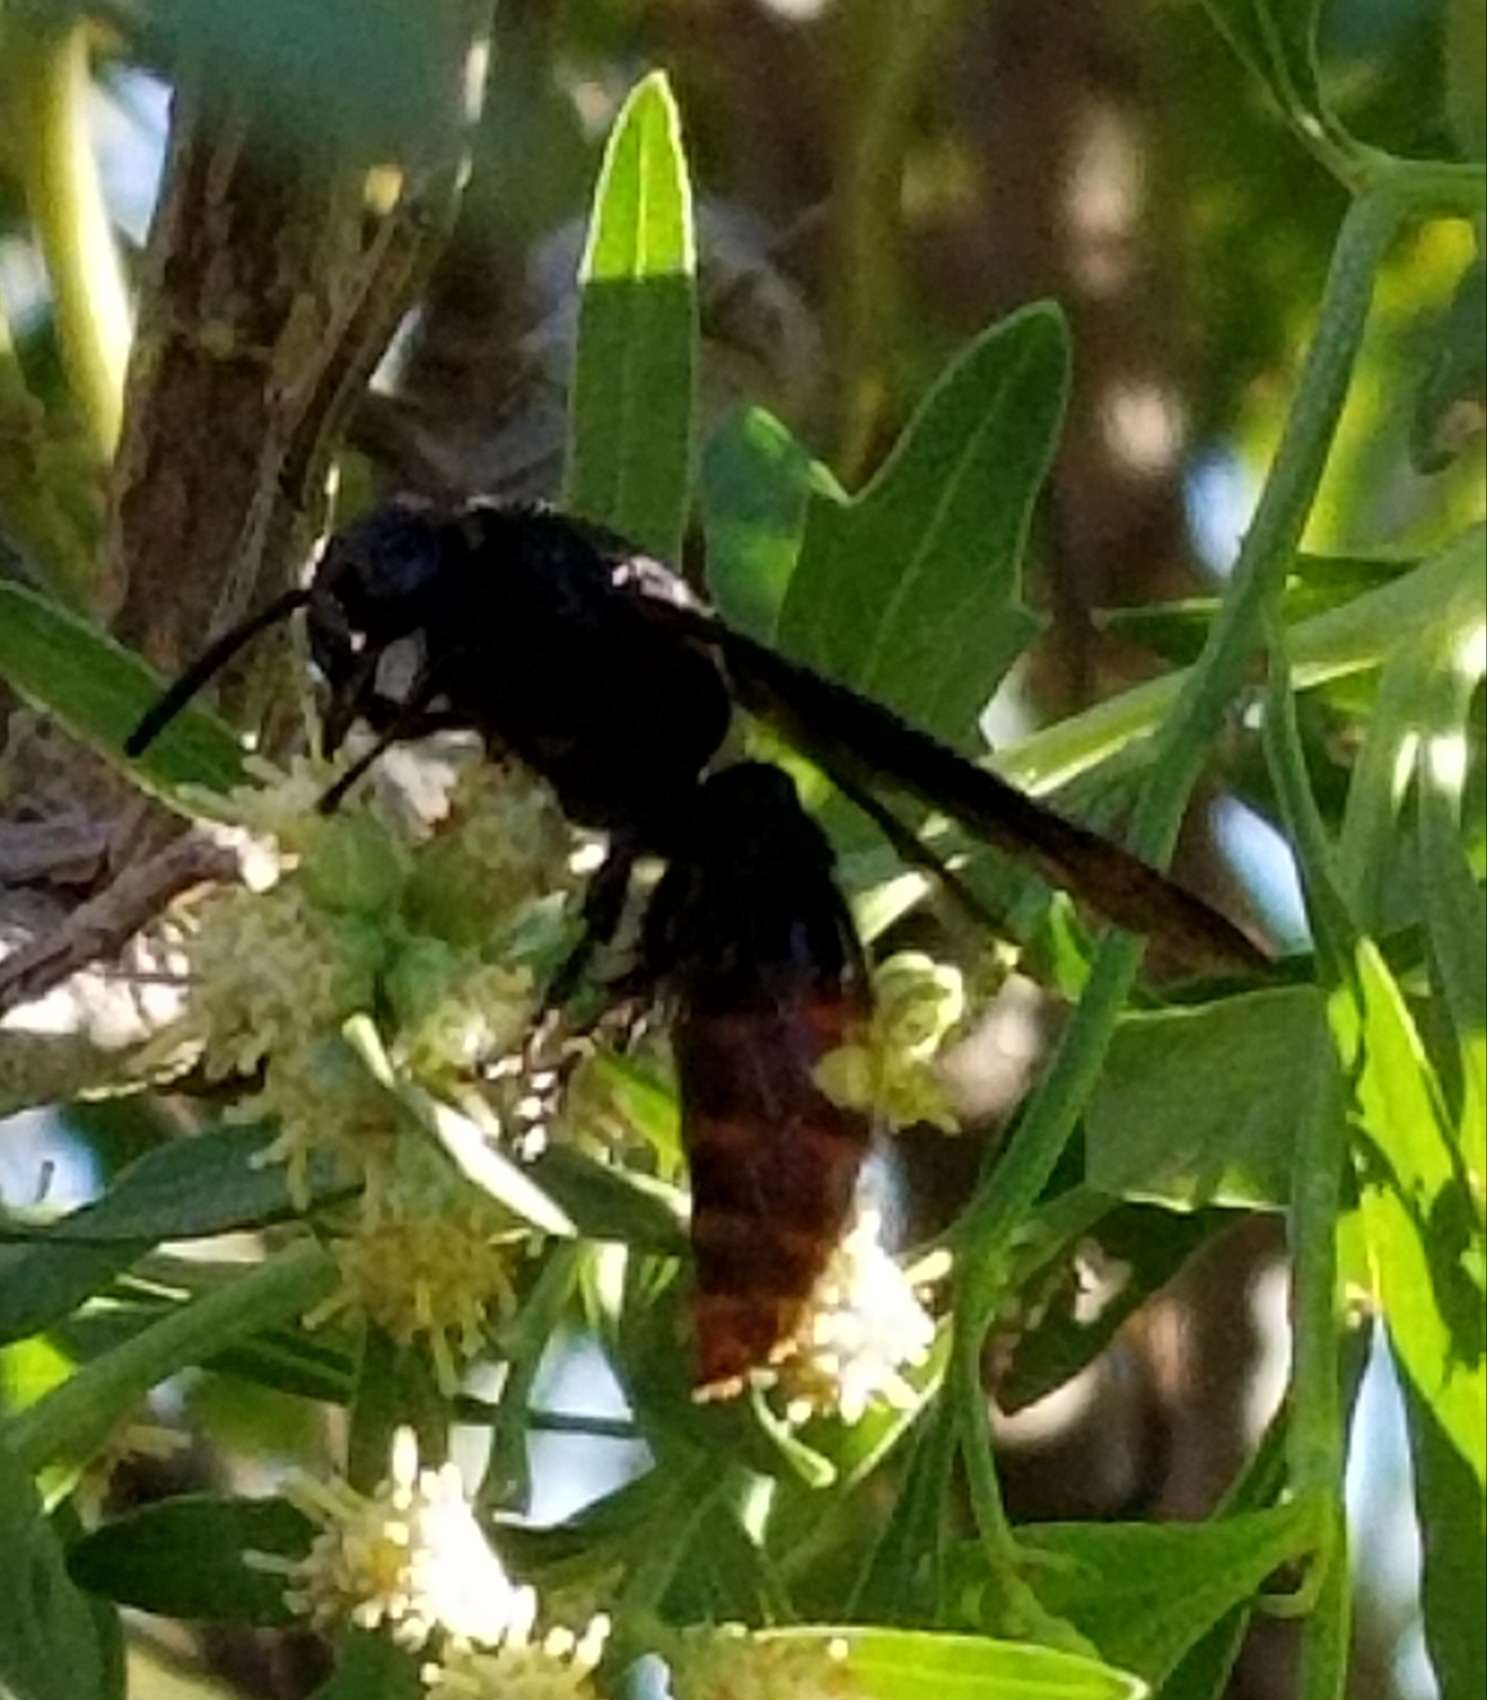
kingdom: Animalia
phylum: Arthropoda
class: Insecta
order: Hymenoptera
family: Scoliidae
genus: Scolia
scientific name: Scolia dubia
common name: Blue-winged scoliid wasp
